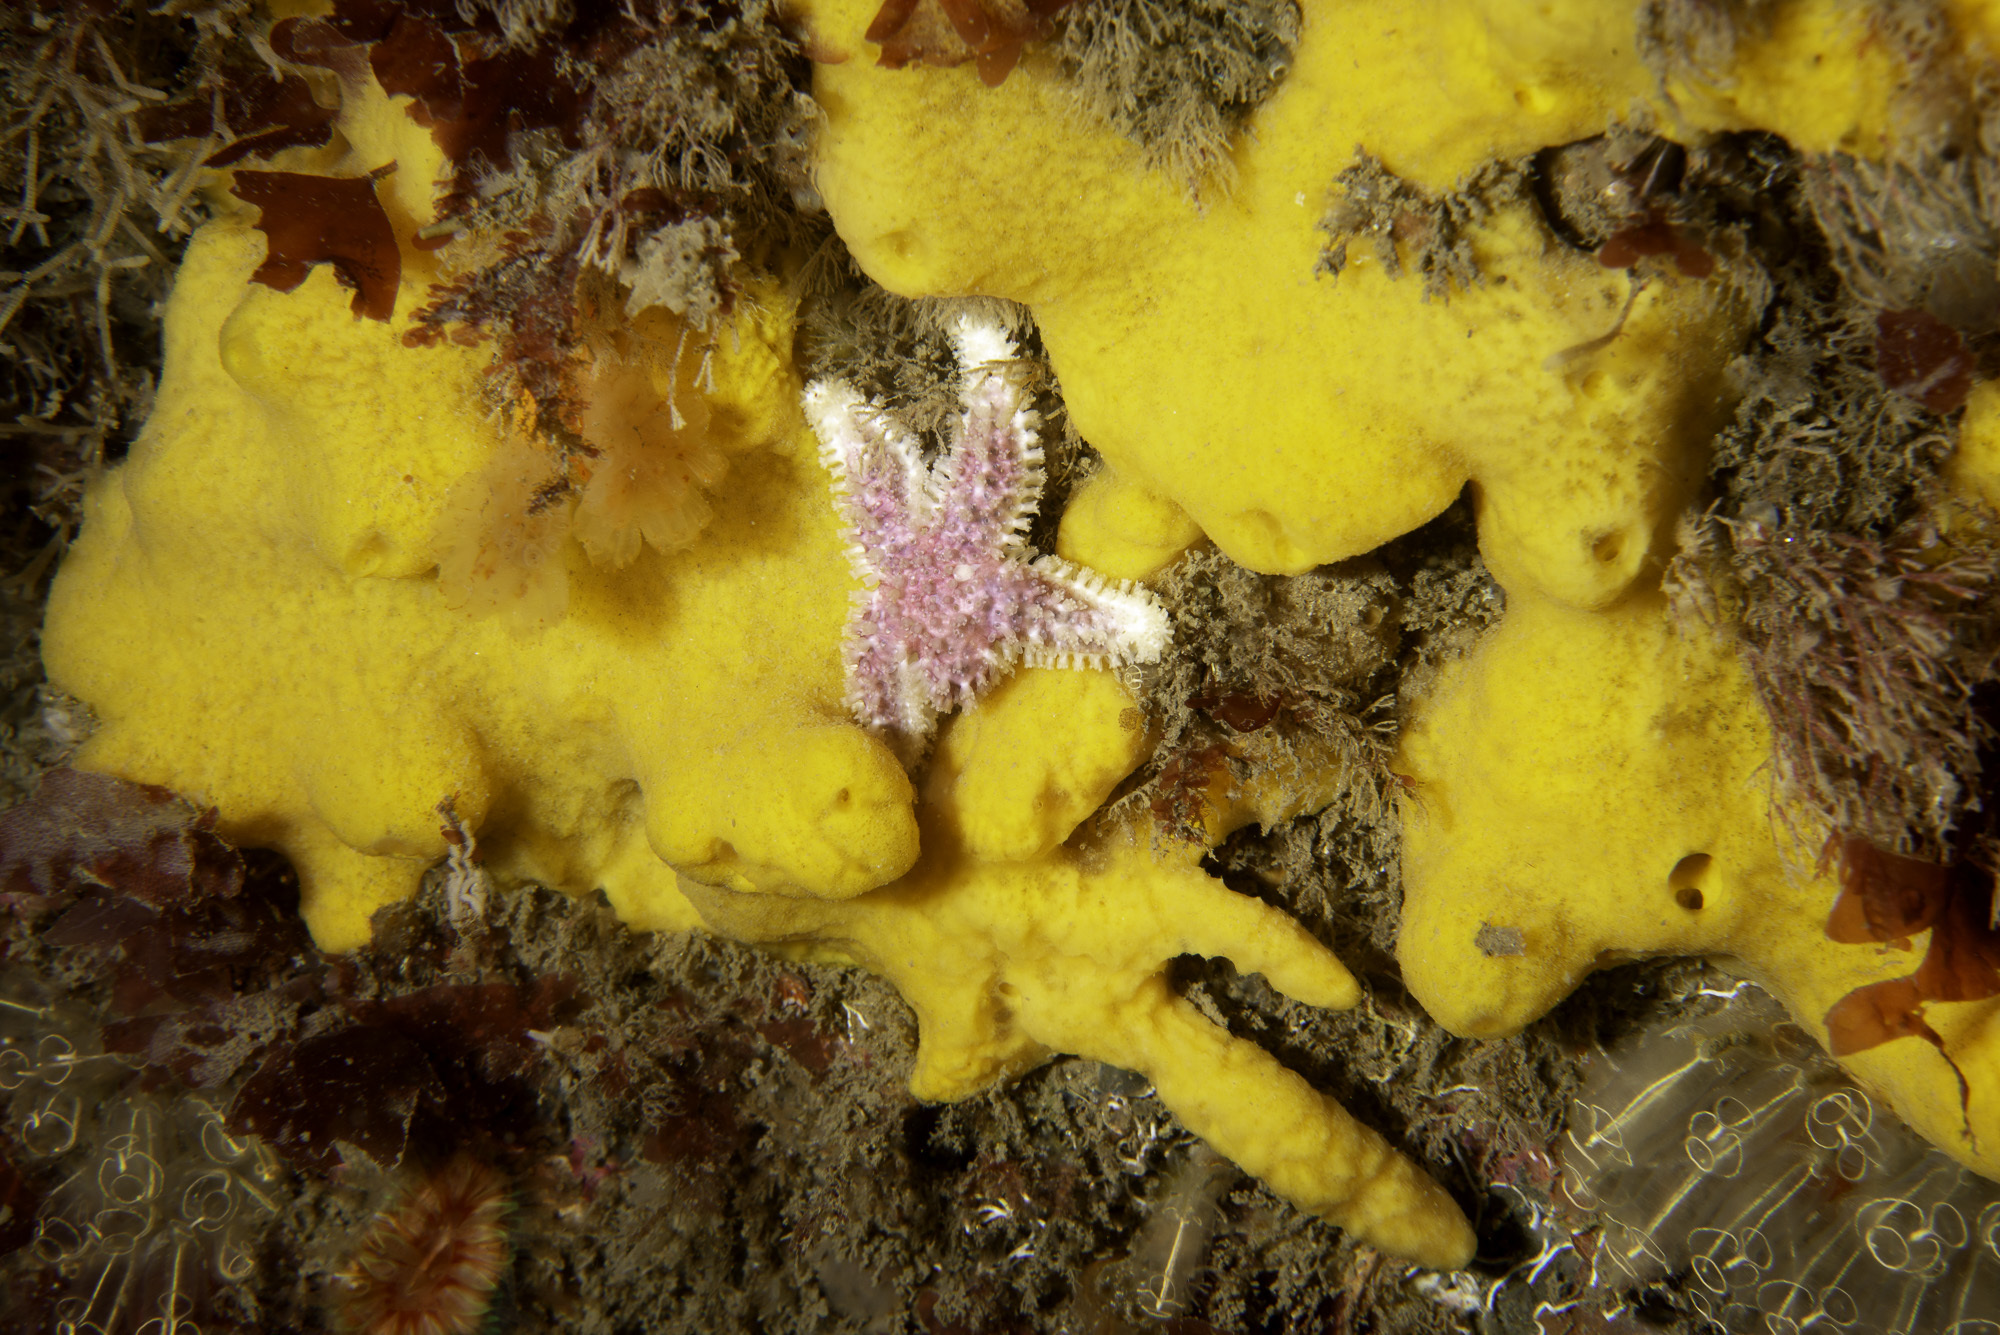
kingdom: Animalia
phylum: Porifera
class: Demospongiae
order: Poecilosclerida
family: Acarnidae
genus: Iophon
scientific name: Iophon nigricans
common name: Yellow-fingered horny sponge
